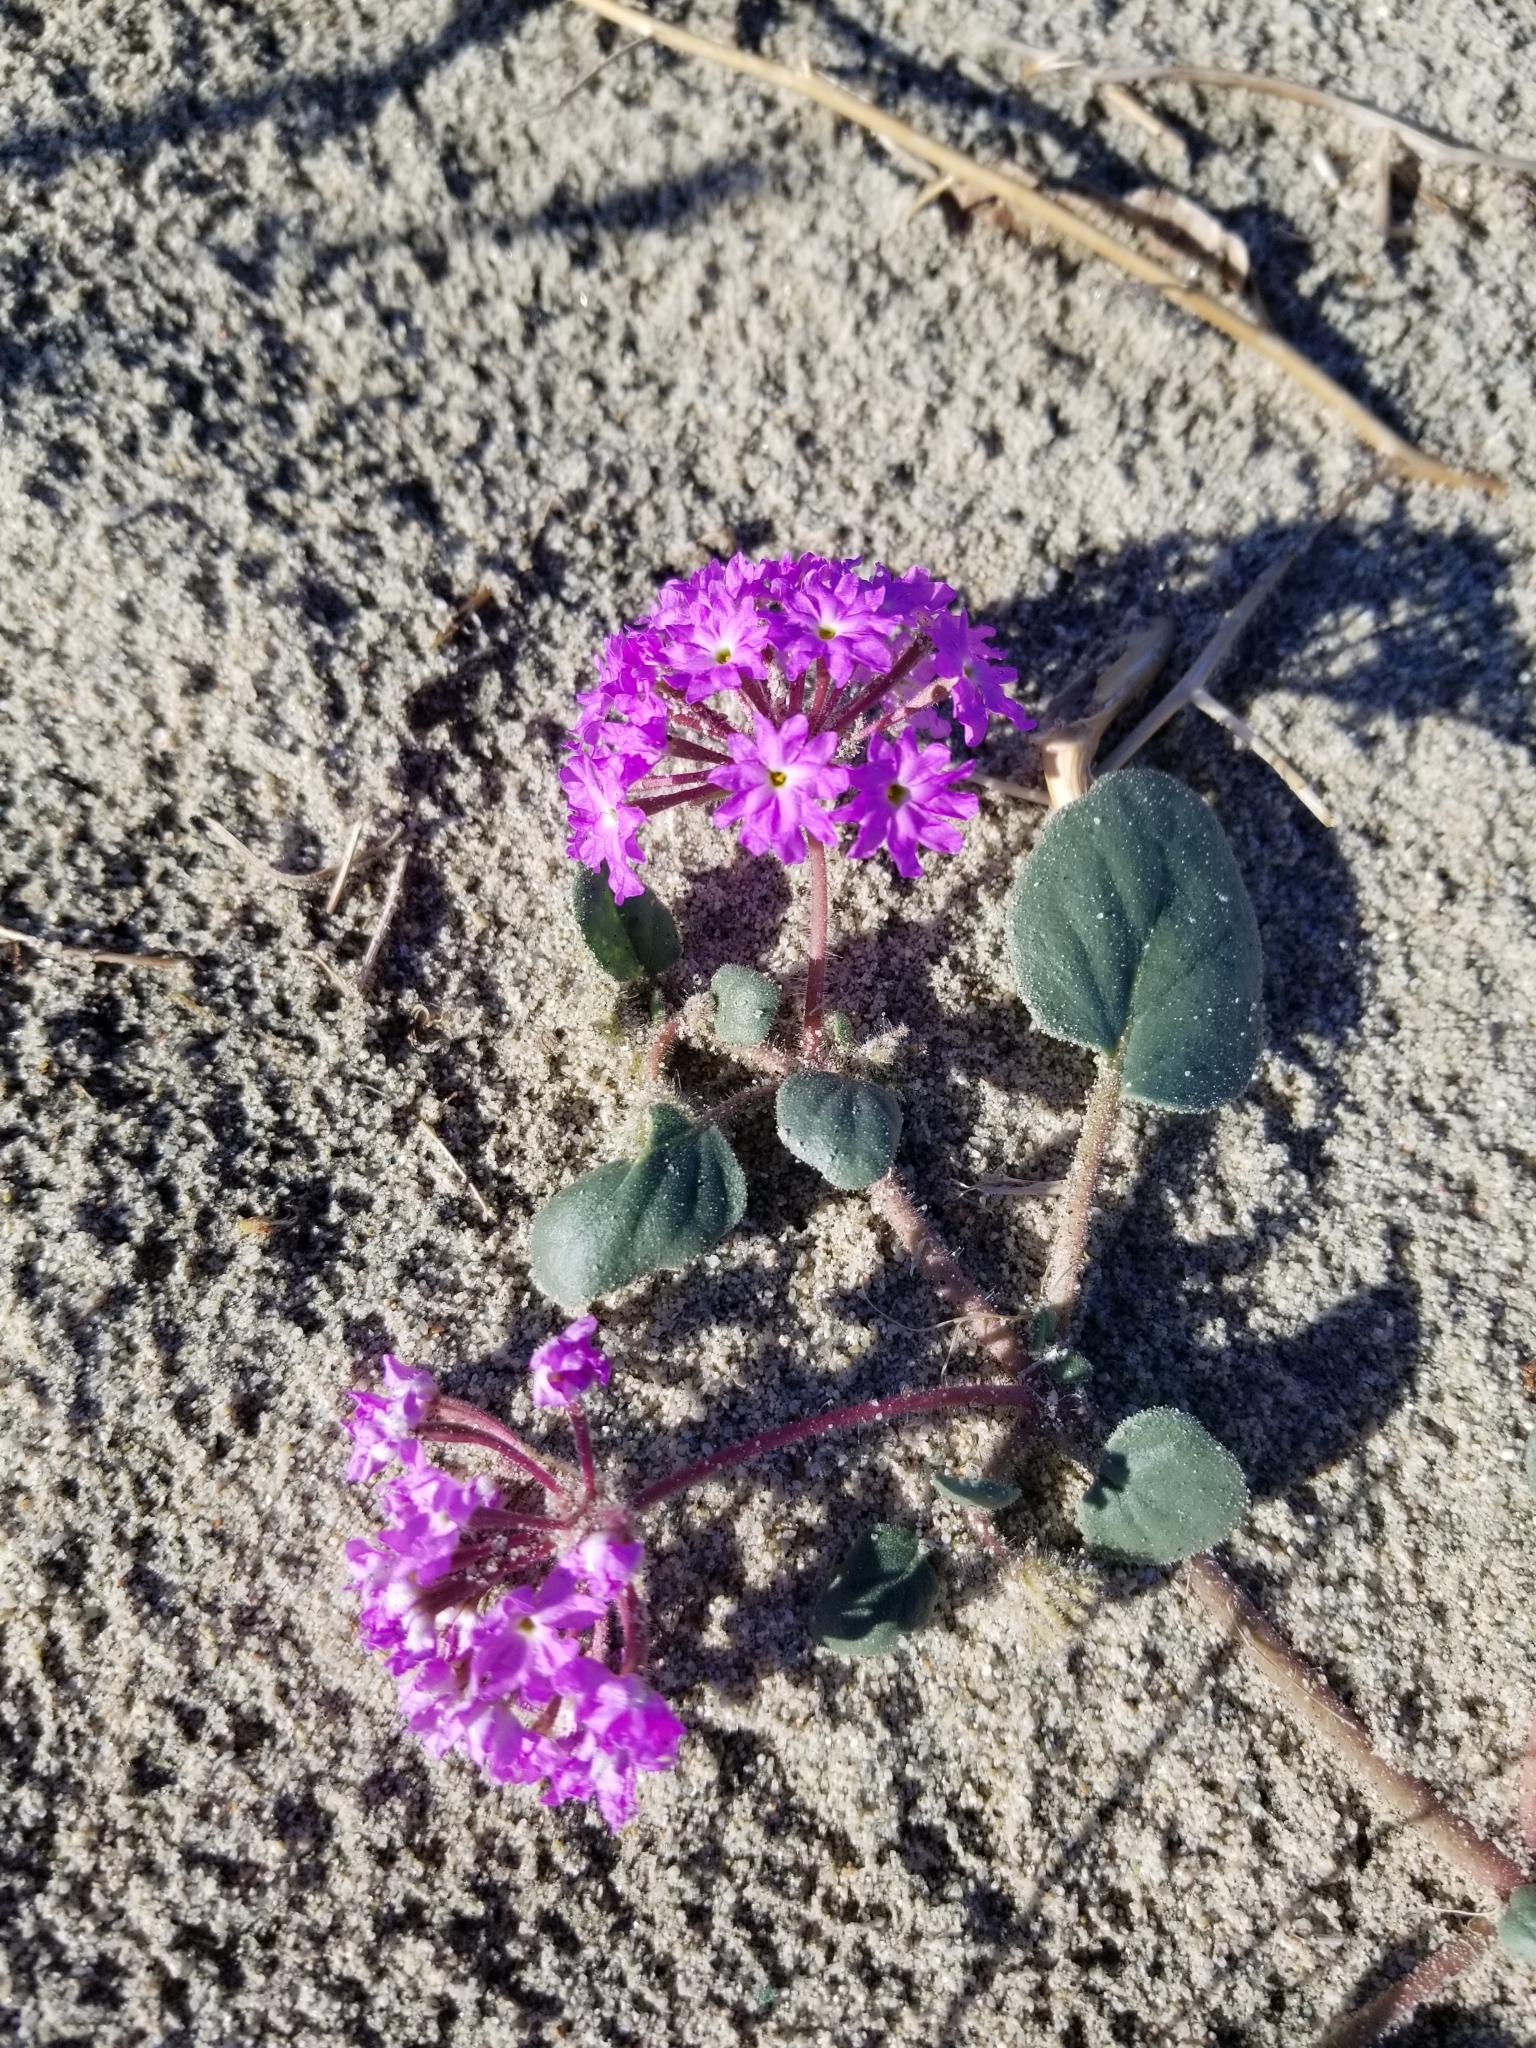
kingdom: Plantae
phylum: Tracheophyta
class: Magnoliopsida
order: Caryophyllales
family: Nyctaginaceae
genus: Abronia
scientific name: Abronia villosa
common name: Desert sand-verbena
